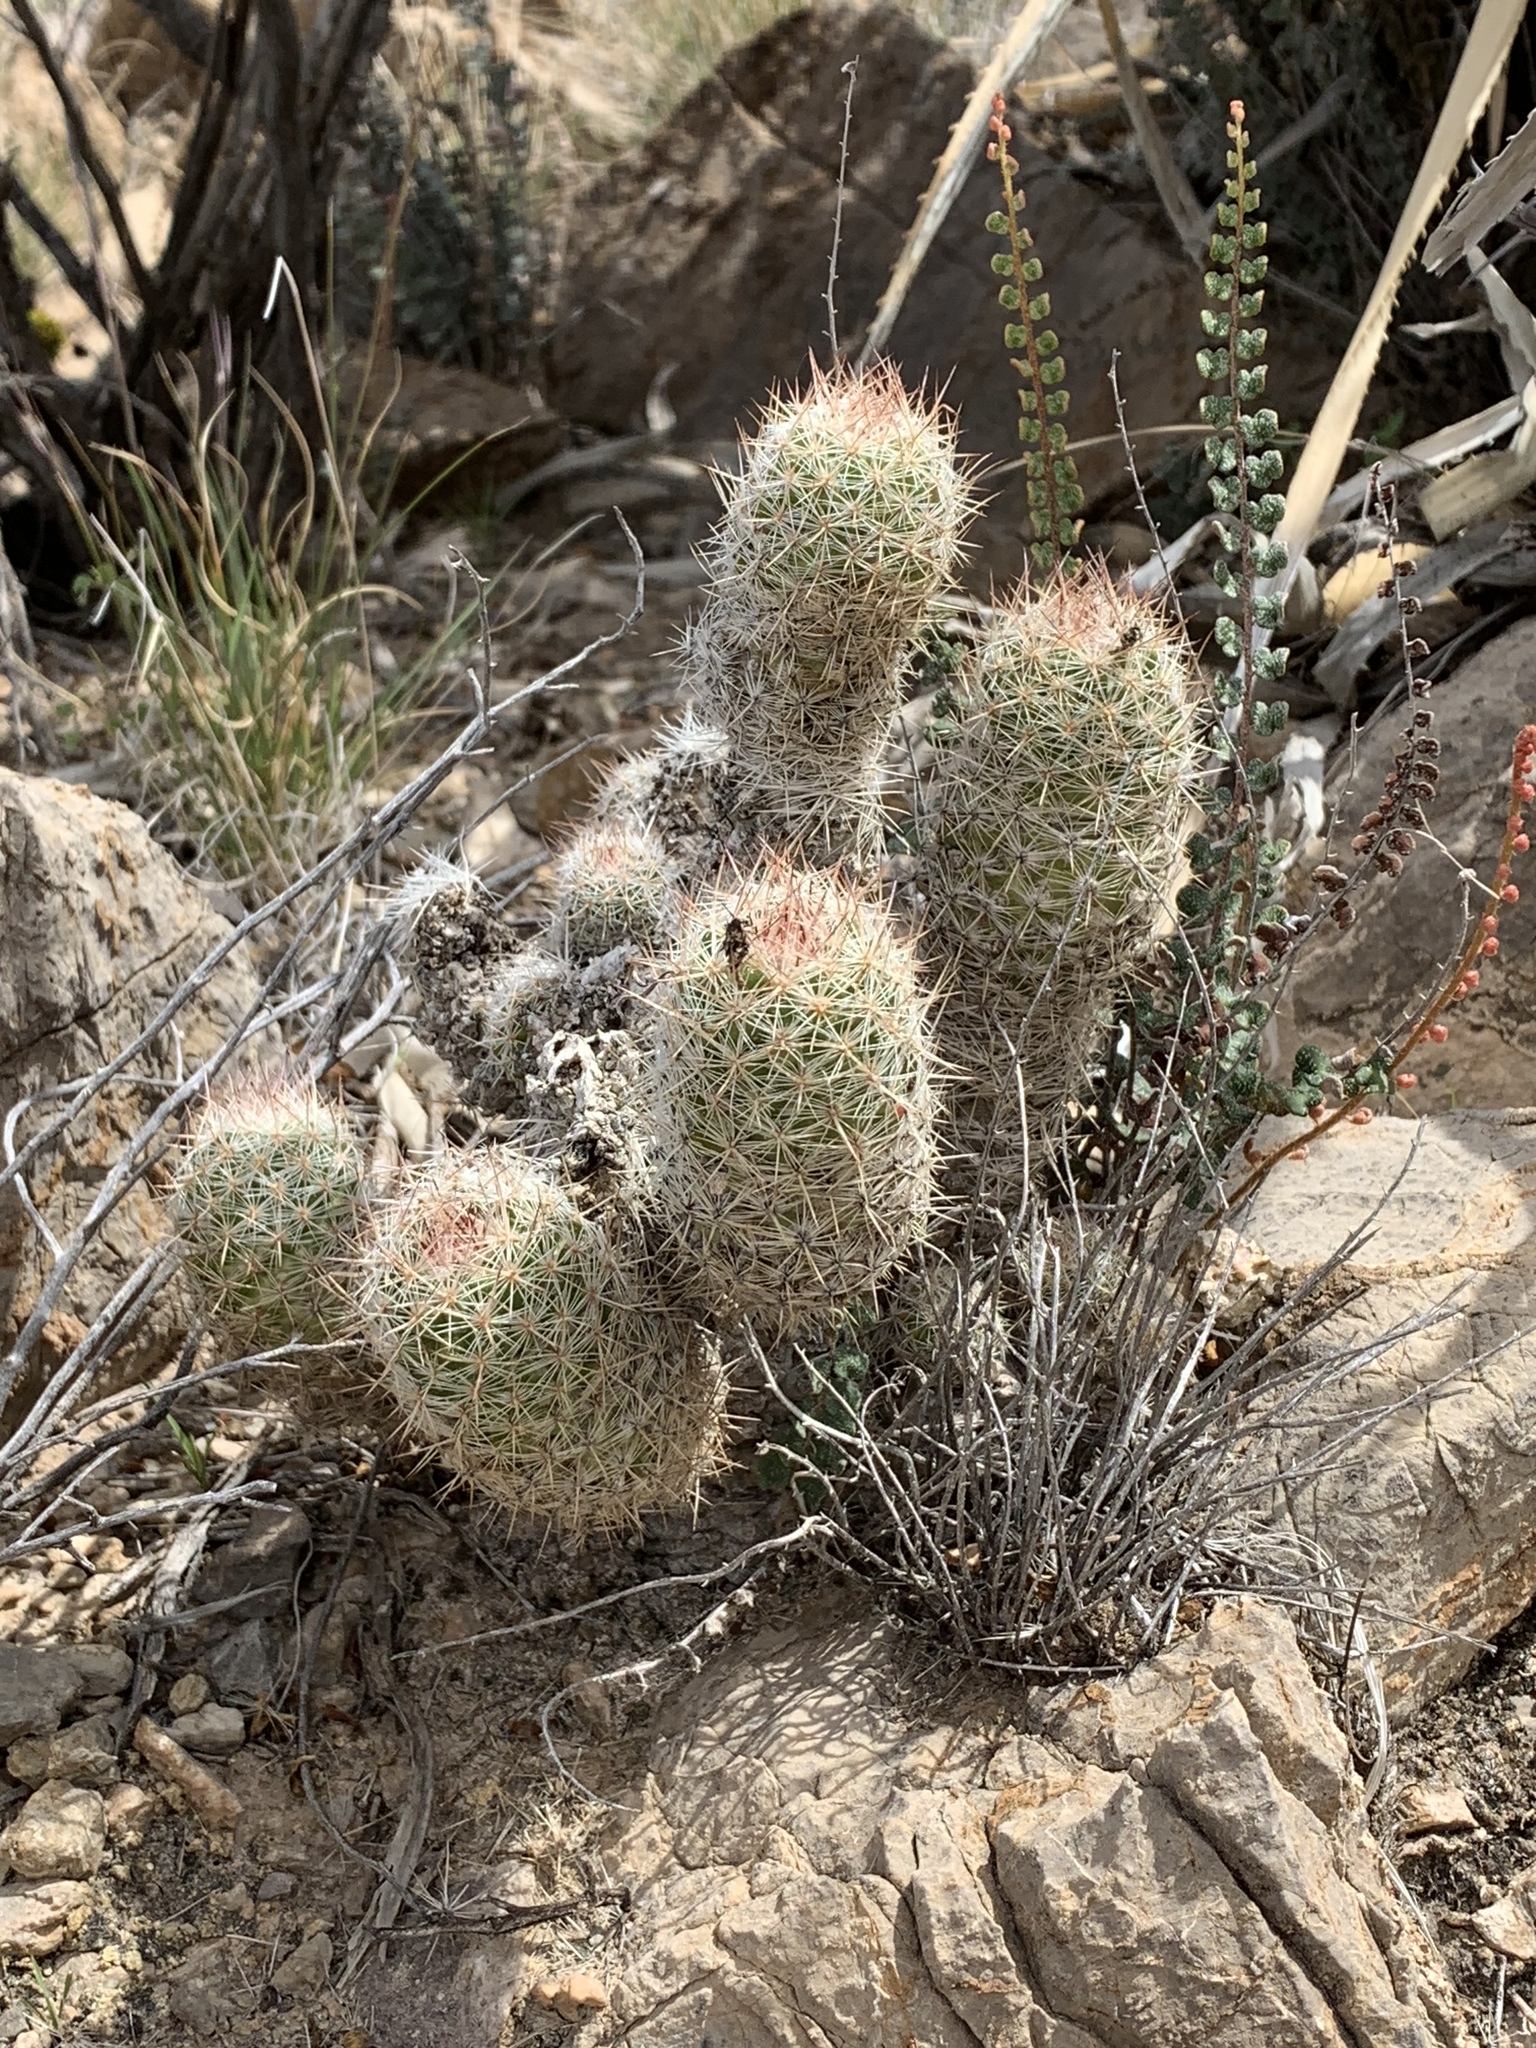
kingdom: Plantae
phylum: Tracheophyta
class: Magnoliopsida
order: Caryophyllales
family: Cactaceae
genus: Pelecyphora
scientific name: Pelecyphora tuberculosa
